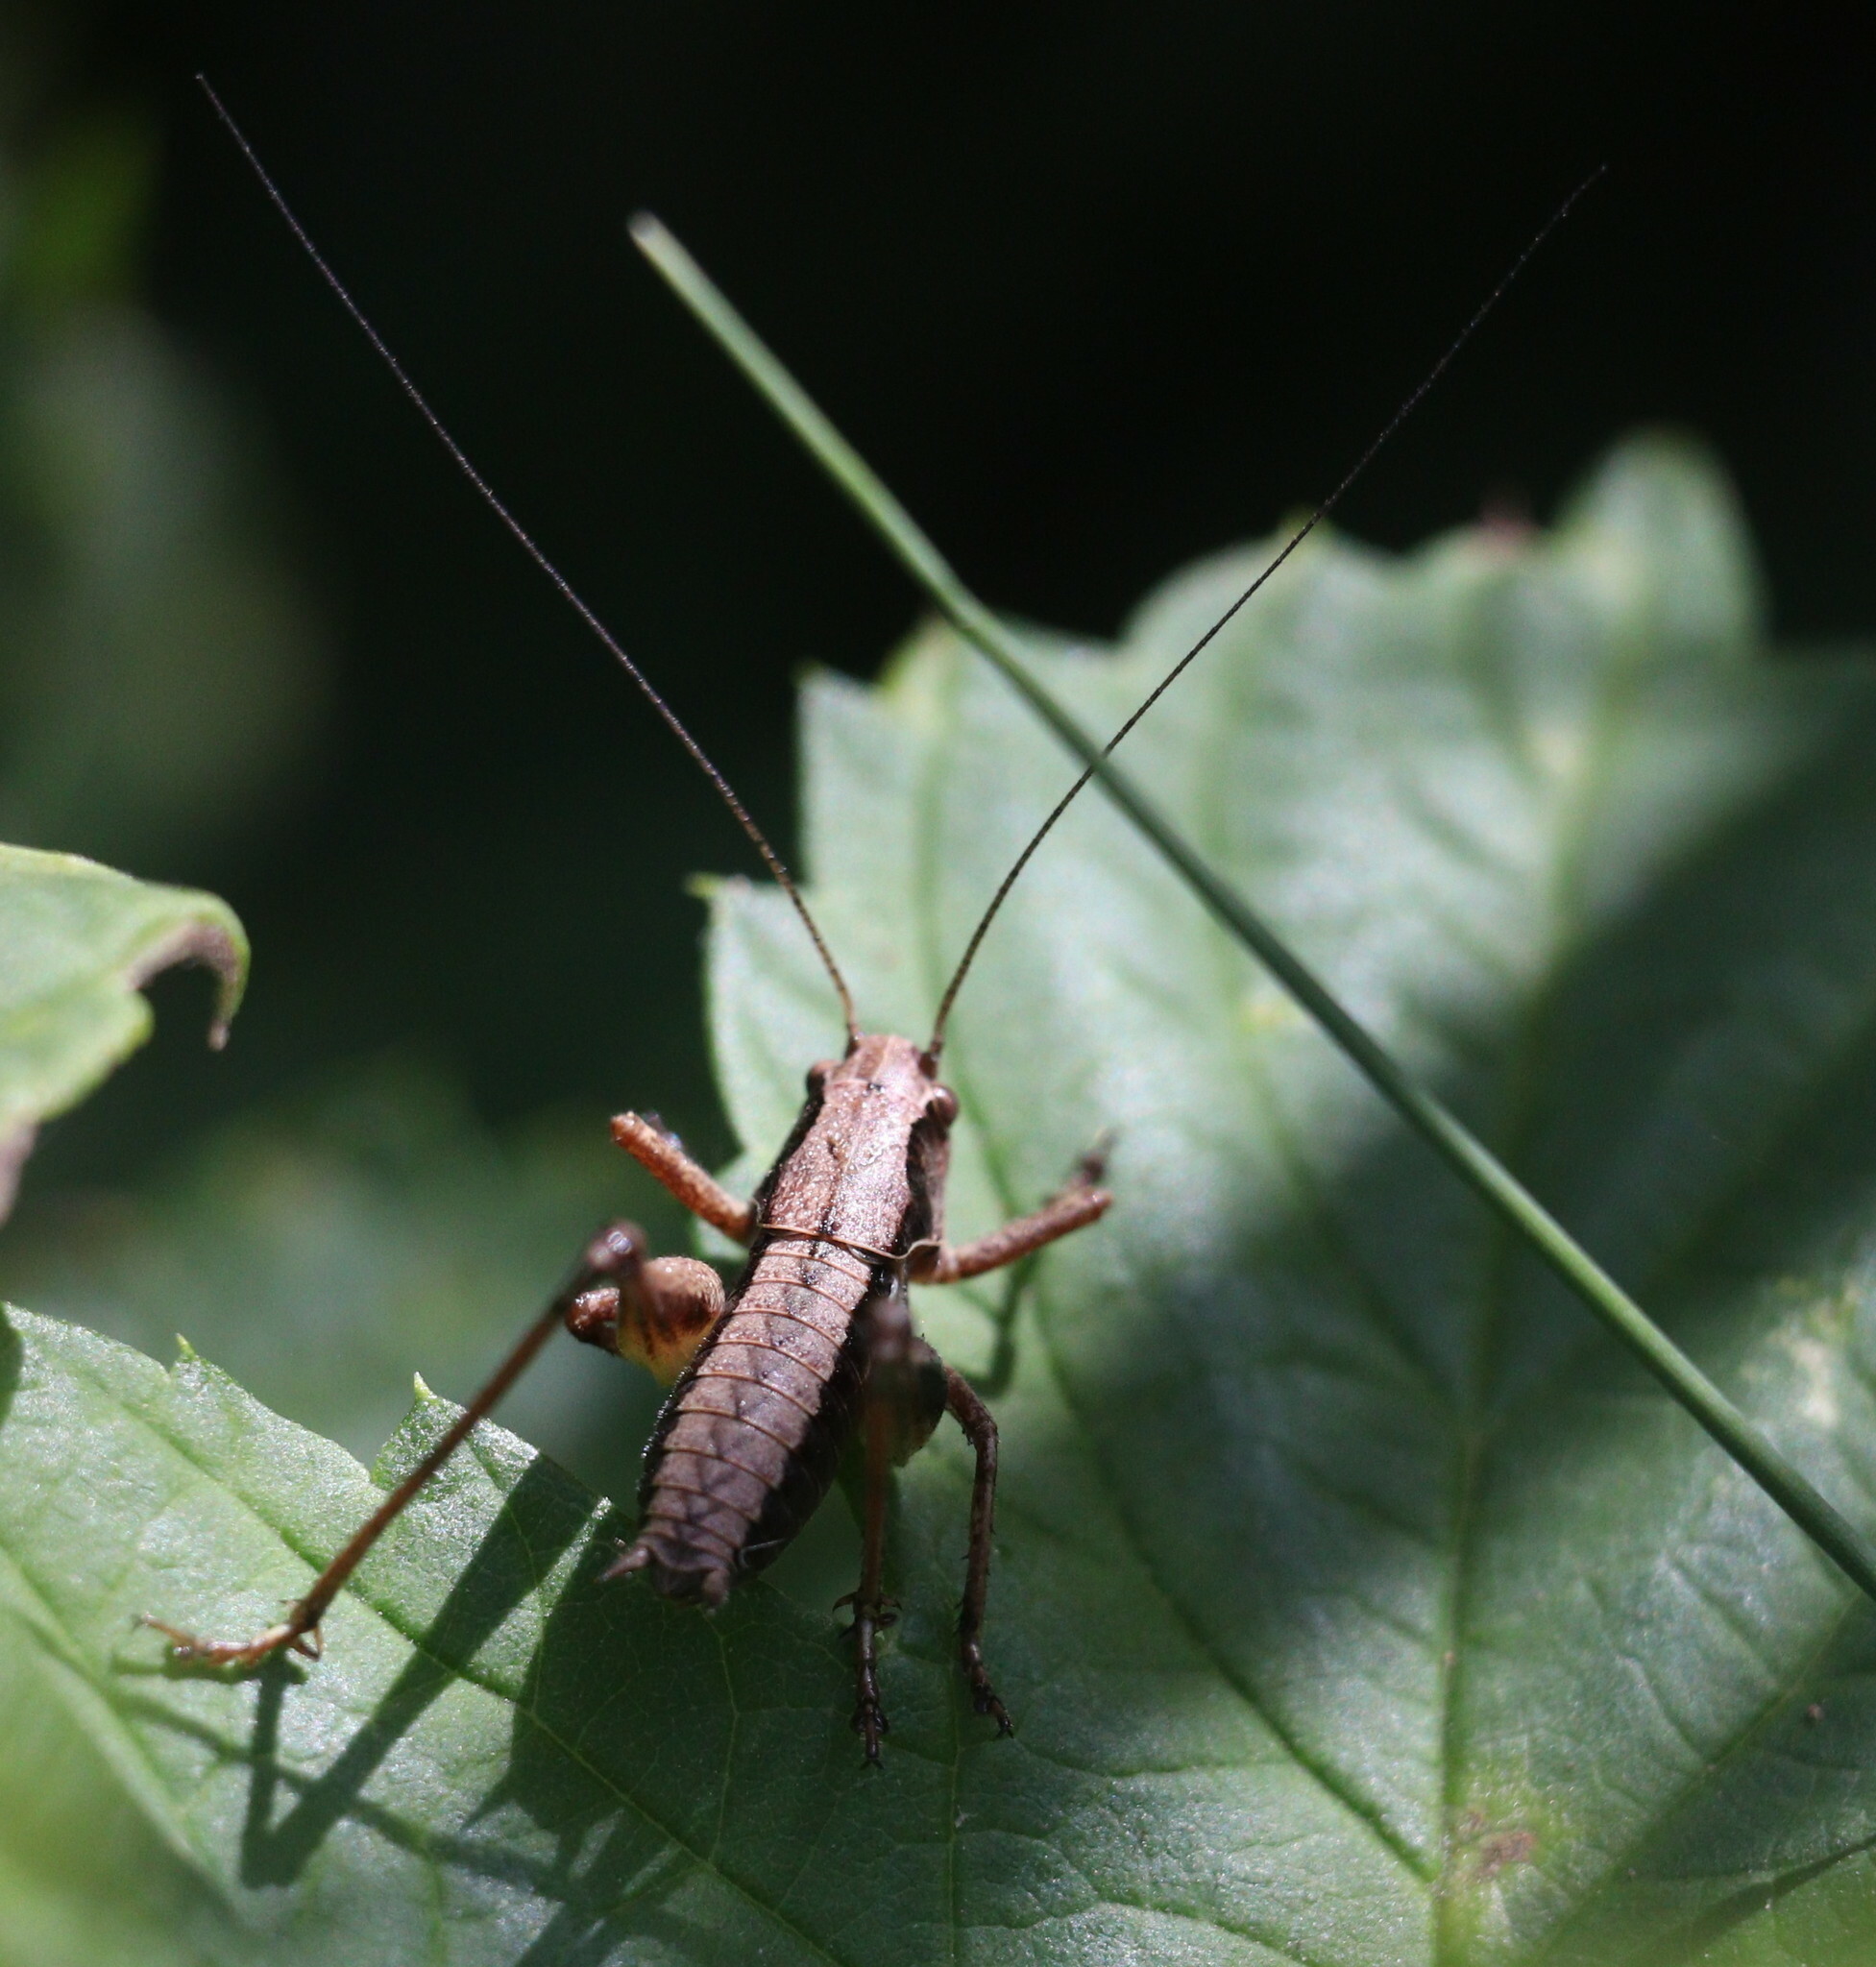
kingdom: Animalia
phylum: Arthropoda
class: Insecta
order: Orthoptera
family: Tettigoniidae
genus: Pholidoptera
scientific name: Pholidoptera griseoaptera
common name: Dark bush-cricket
